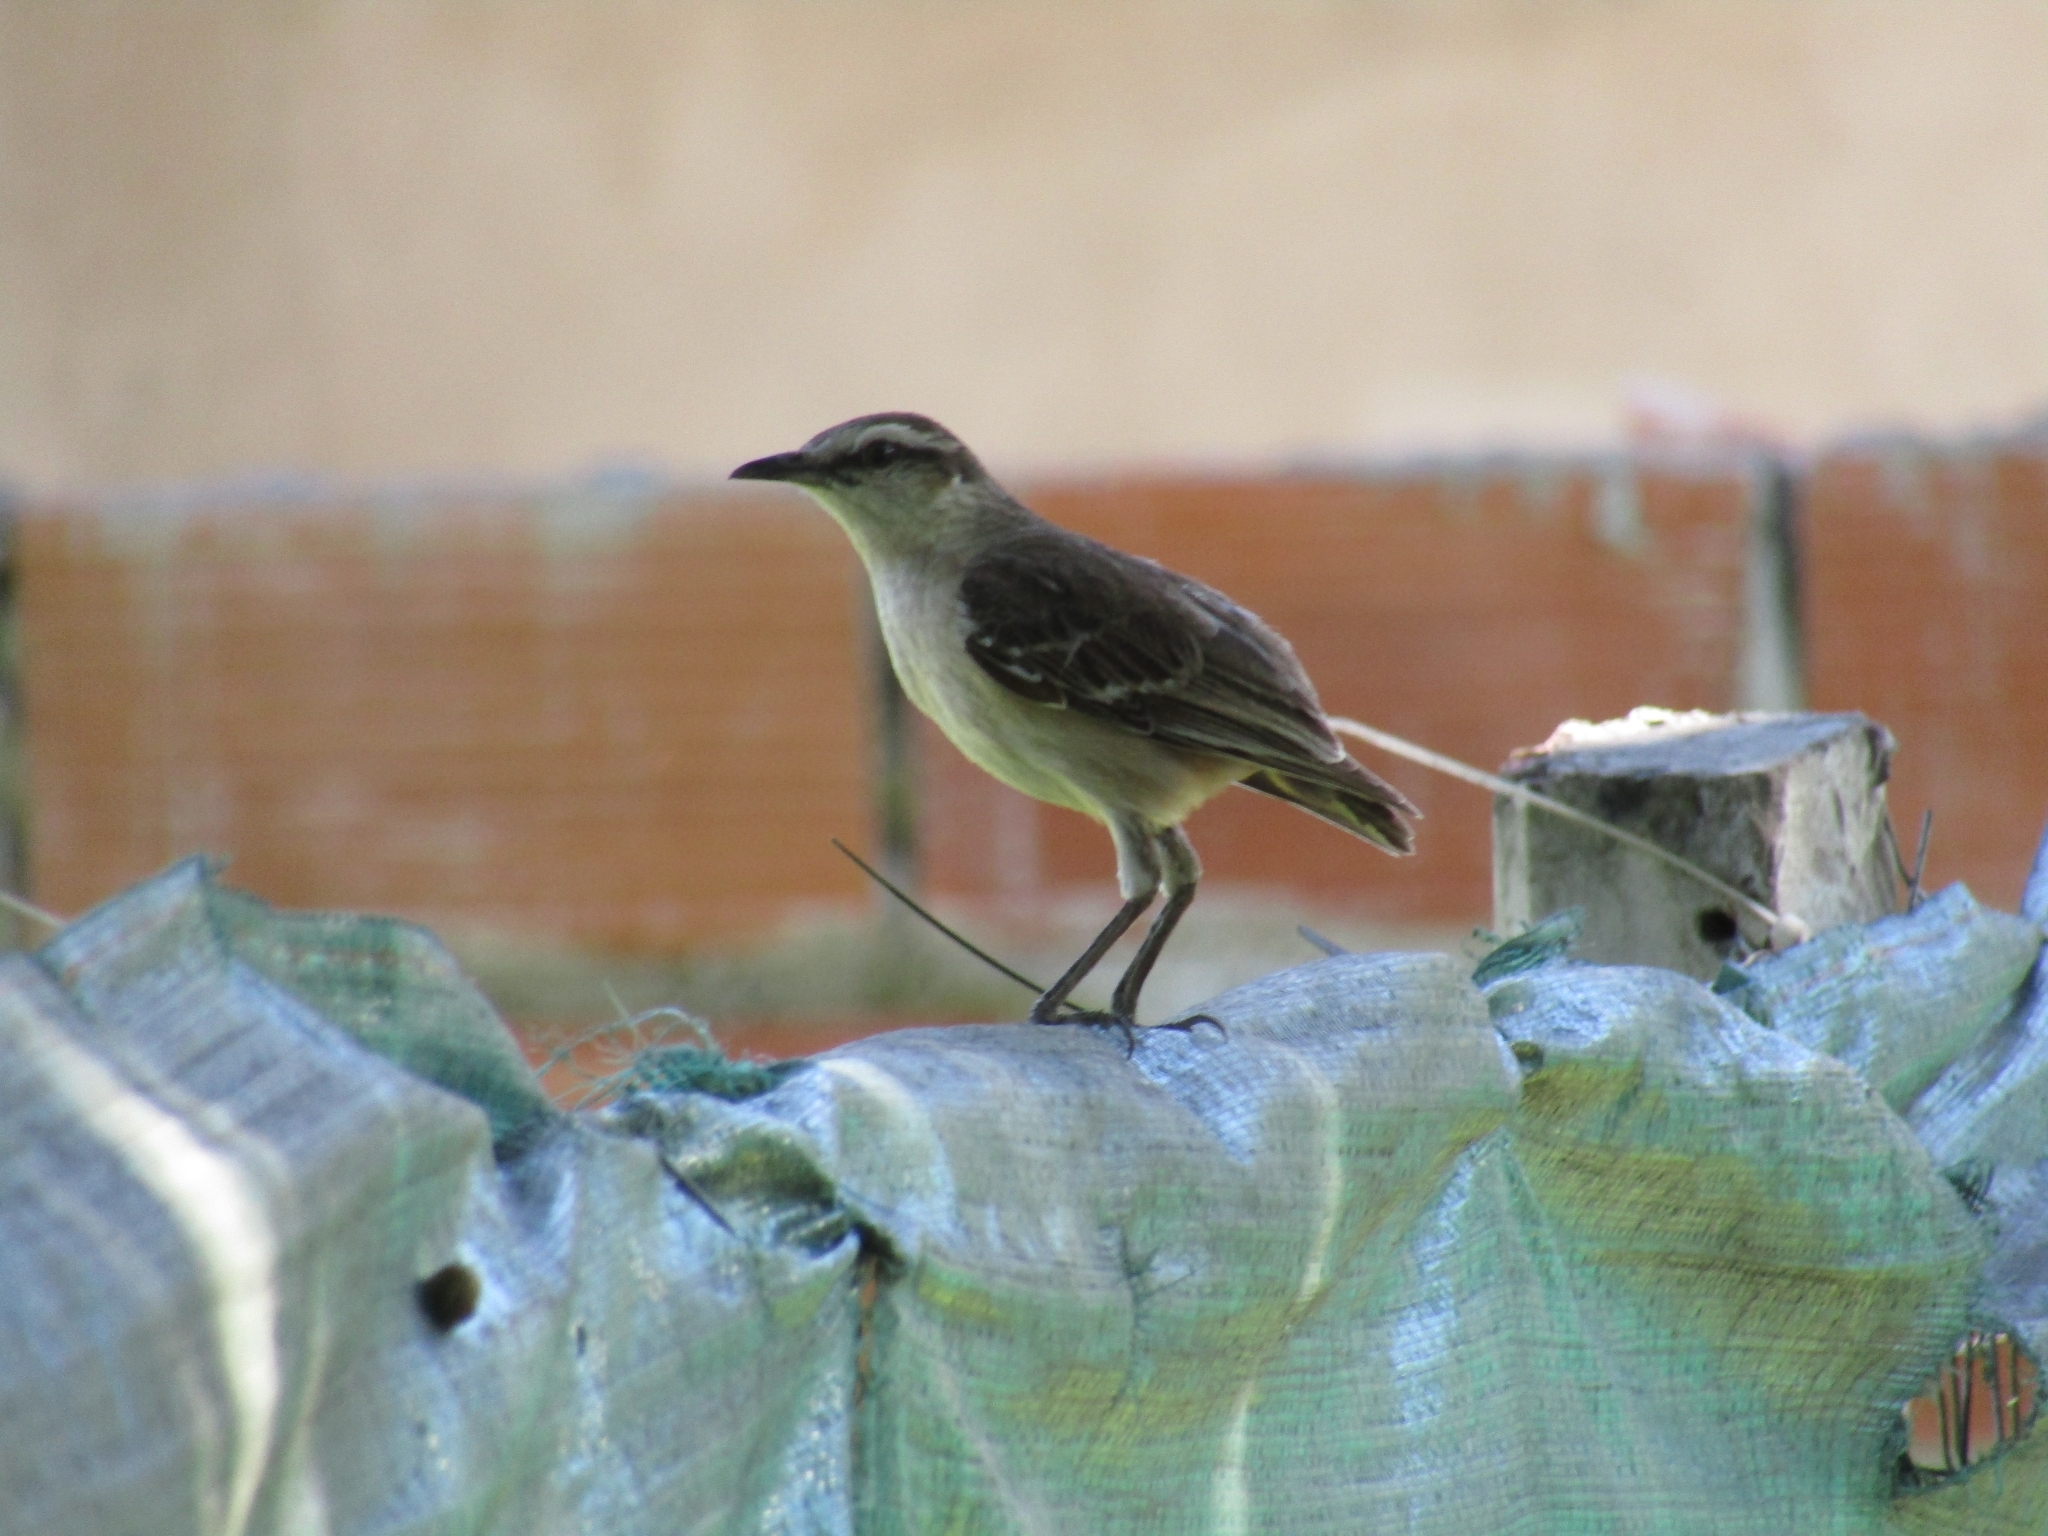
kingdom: Animalia
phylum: Chordata
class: Aves
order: Passeriformes
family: Mimidae
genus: Mimus
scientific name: Mimus saturninus
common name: Chalk-browed mockingbird
